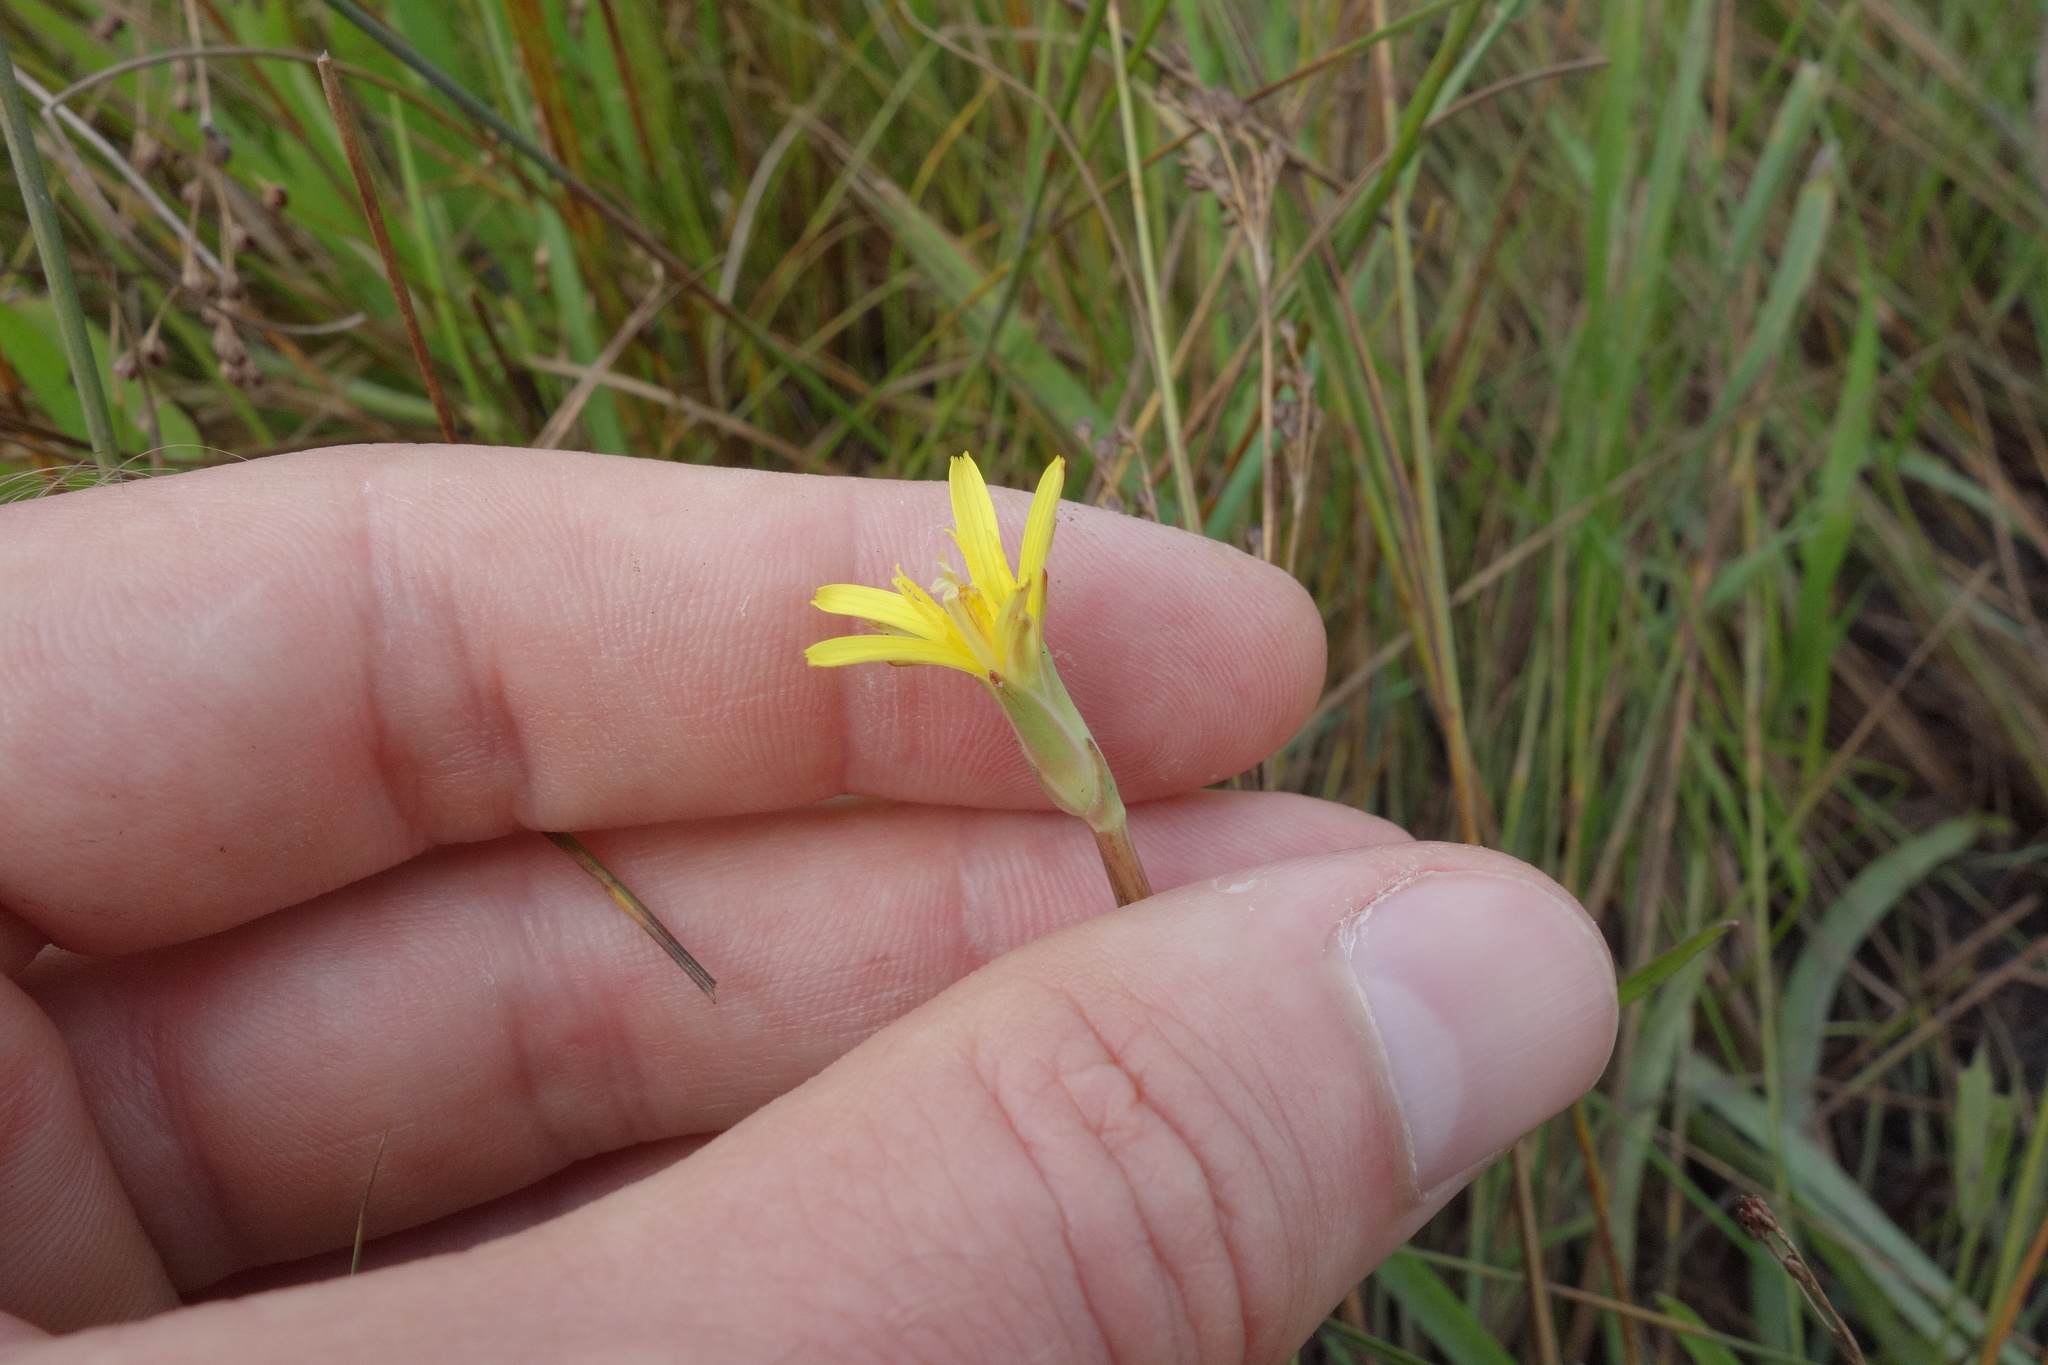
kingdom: Plantae
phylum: Tracheophyta
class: Magnoliopsida
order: Asterales
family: Asteraceae
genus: Scorzonera
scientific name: Scorzonera parviflora
